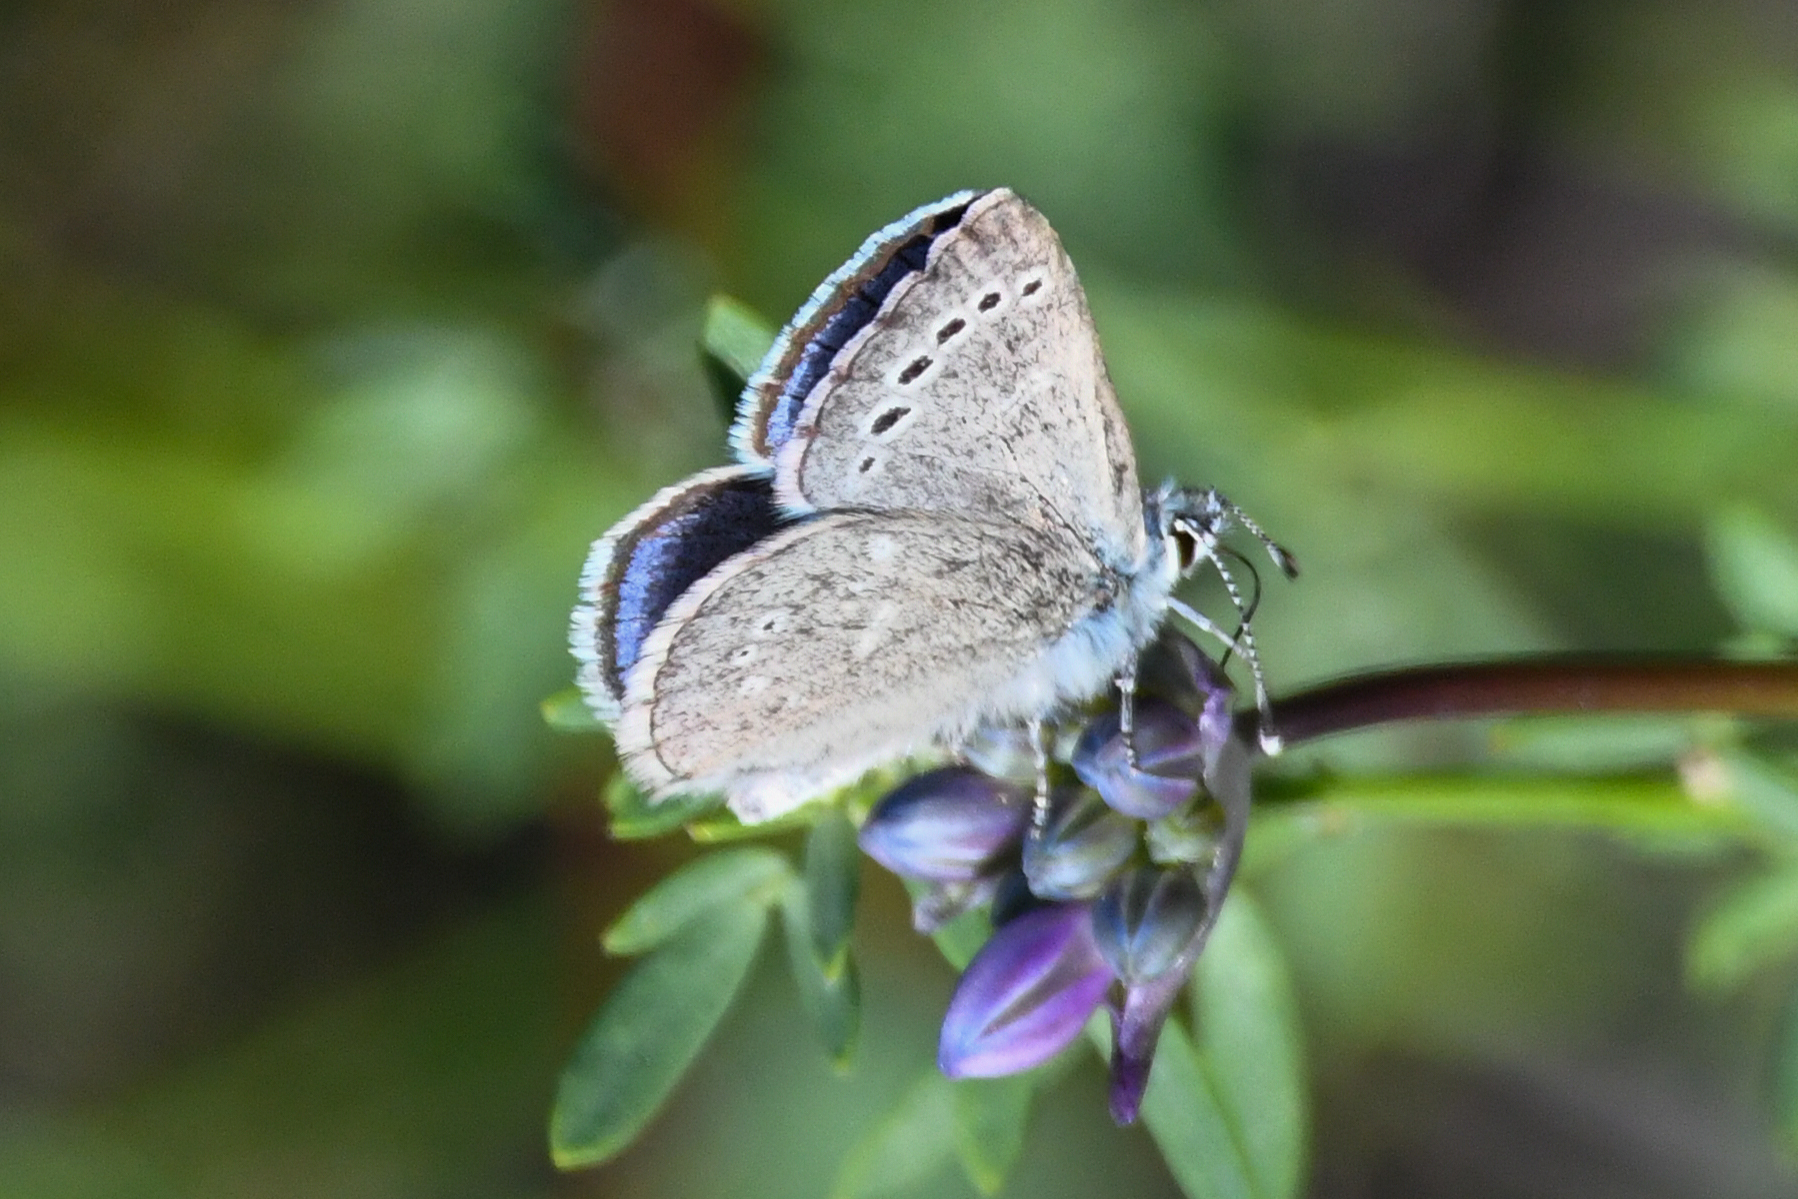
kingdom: Animalia
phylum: Arthropoda
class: Insecta
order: Lepidoptera
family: Lycaenidae
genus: Glaucopsyche
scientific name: Glaucopsyche lygdamus
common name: Silvery blue
